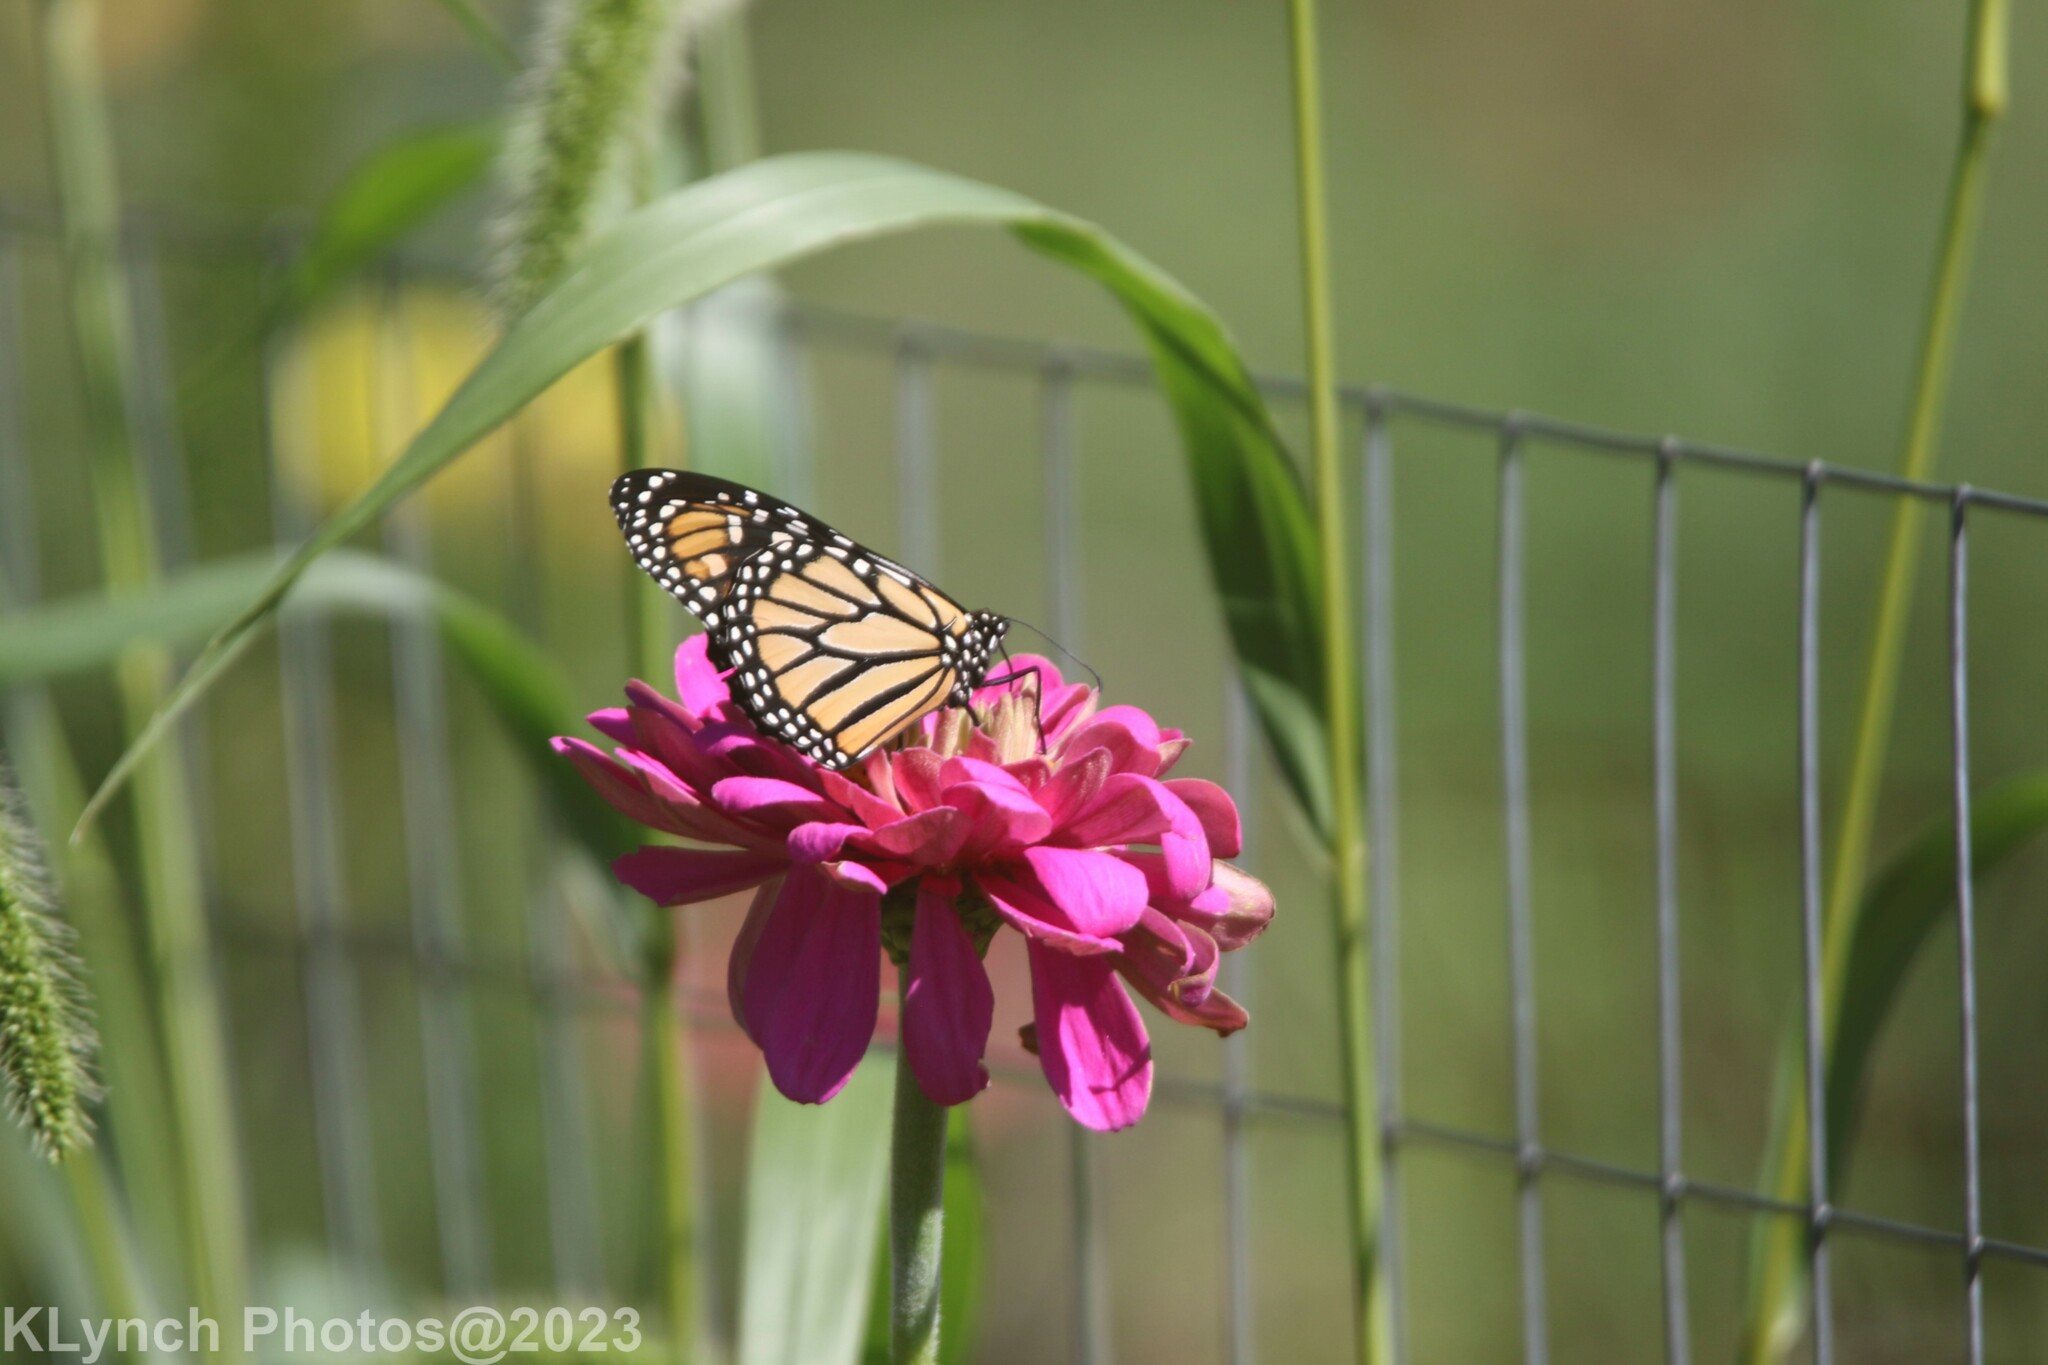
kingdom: Animalia
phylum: Arthropoda
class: Insecta
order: Lepidoptera
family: Nymphalidae
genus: Danaus
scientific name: Danaus plexippus
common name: Monarch
